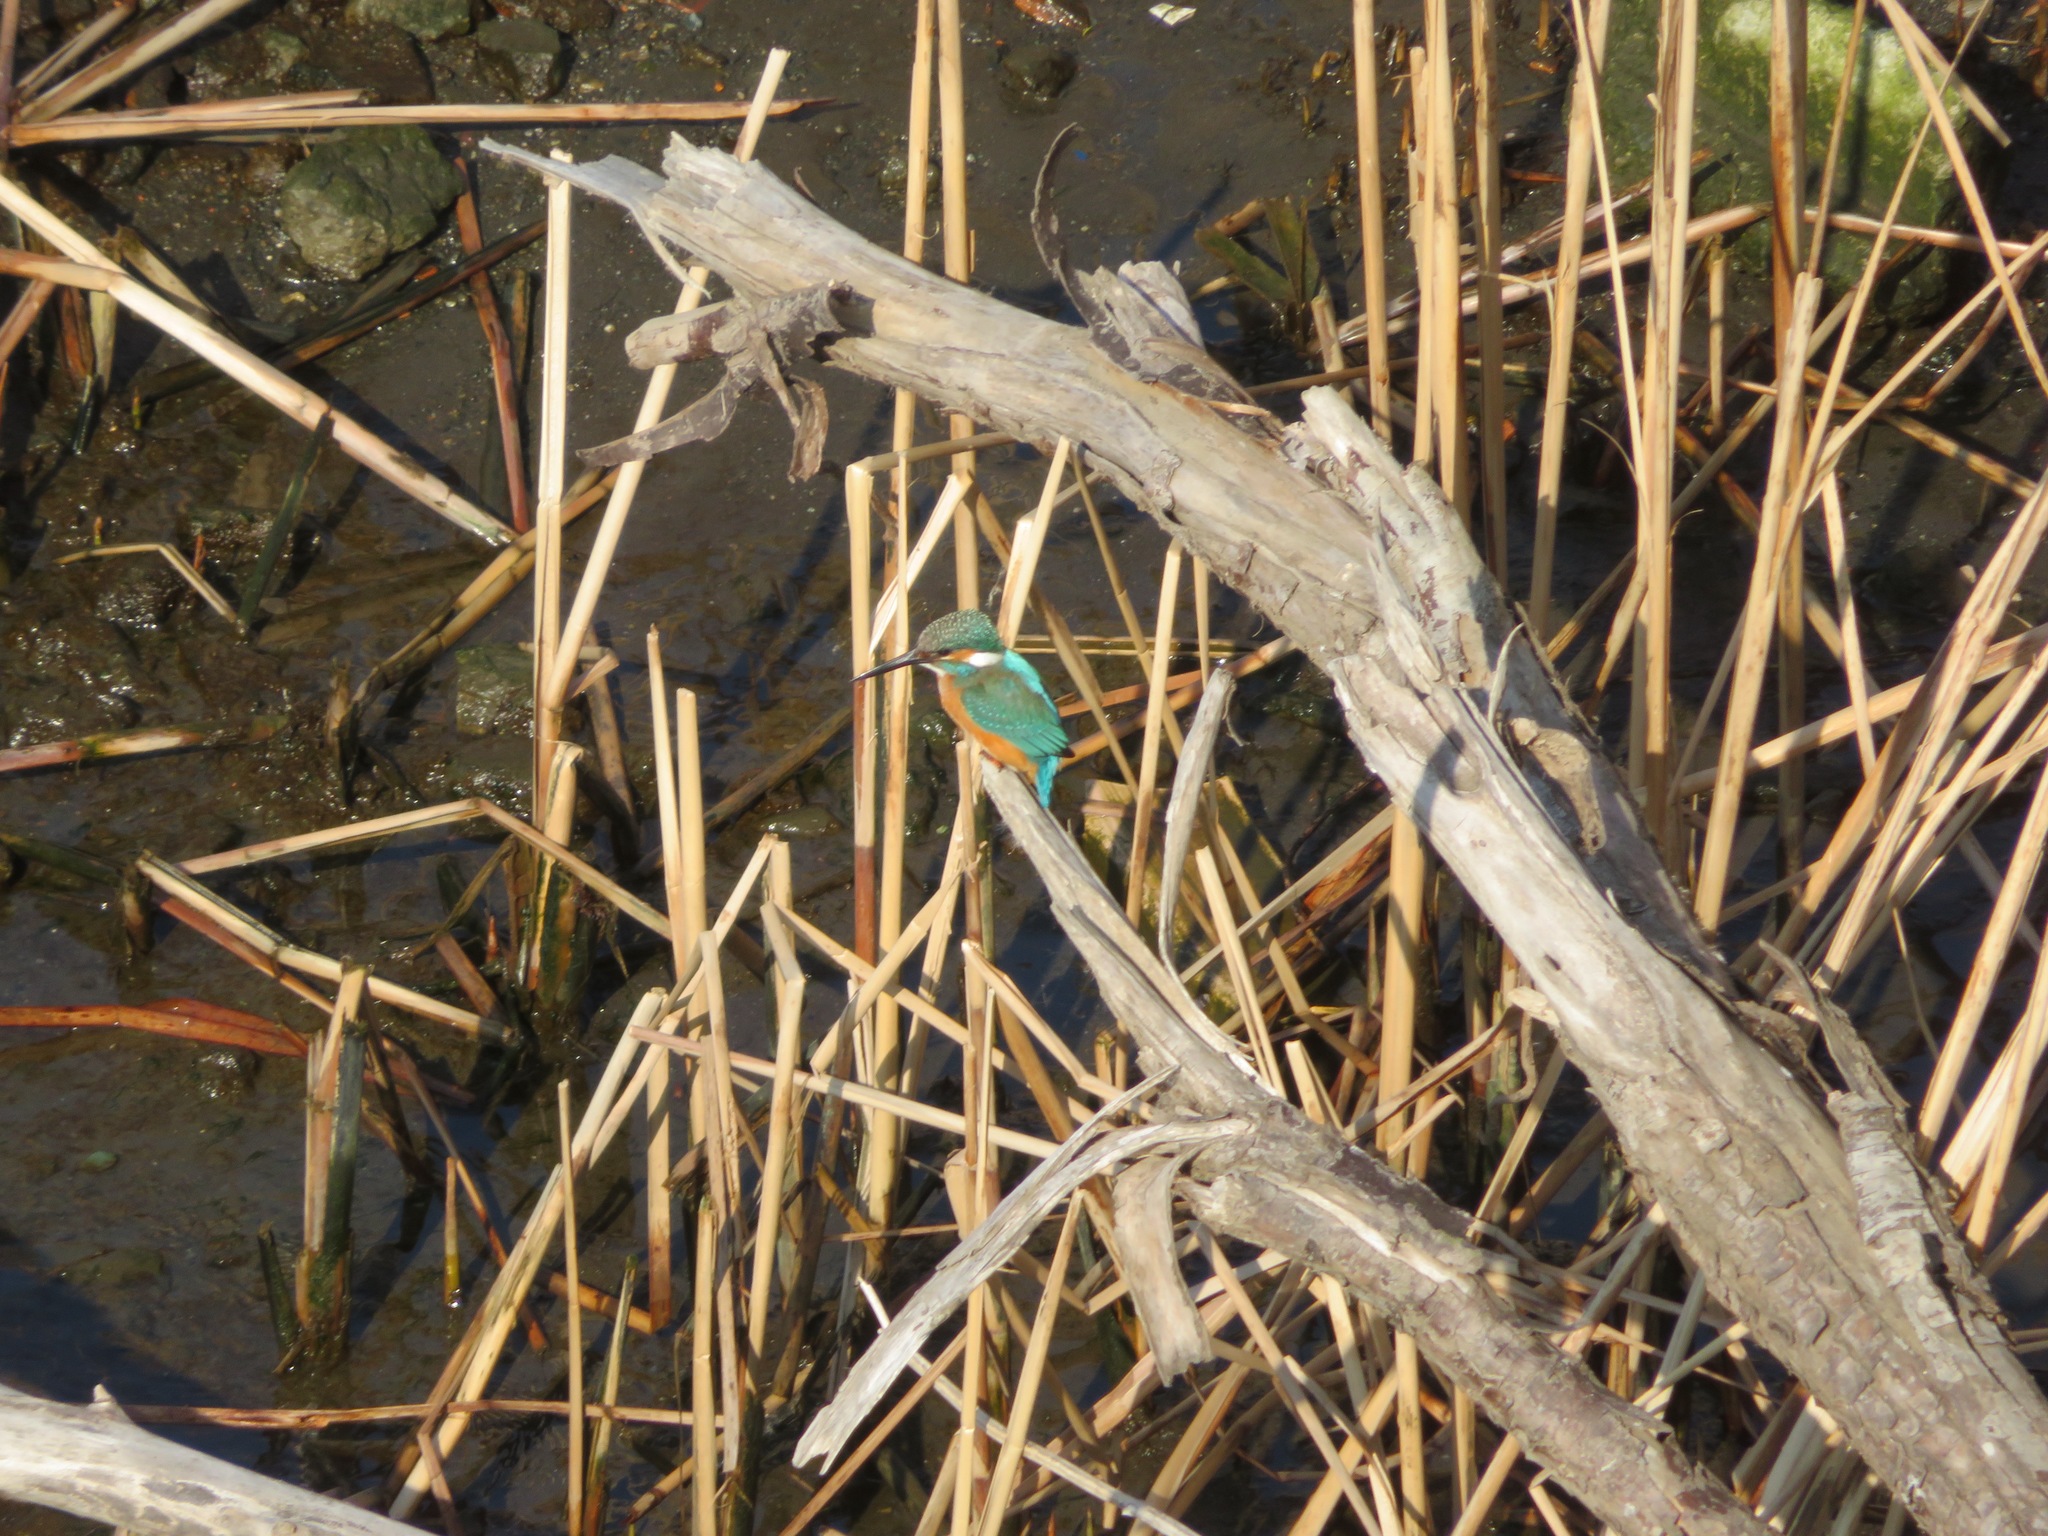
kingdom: Animalia
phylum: Chordata
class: Aves
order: Coraciiformes
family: Alcedinidae
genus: Alcedo
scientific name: Alcedo atthis
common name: Common kingfisher
